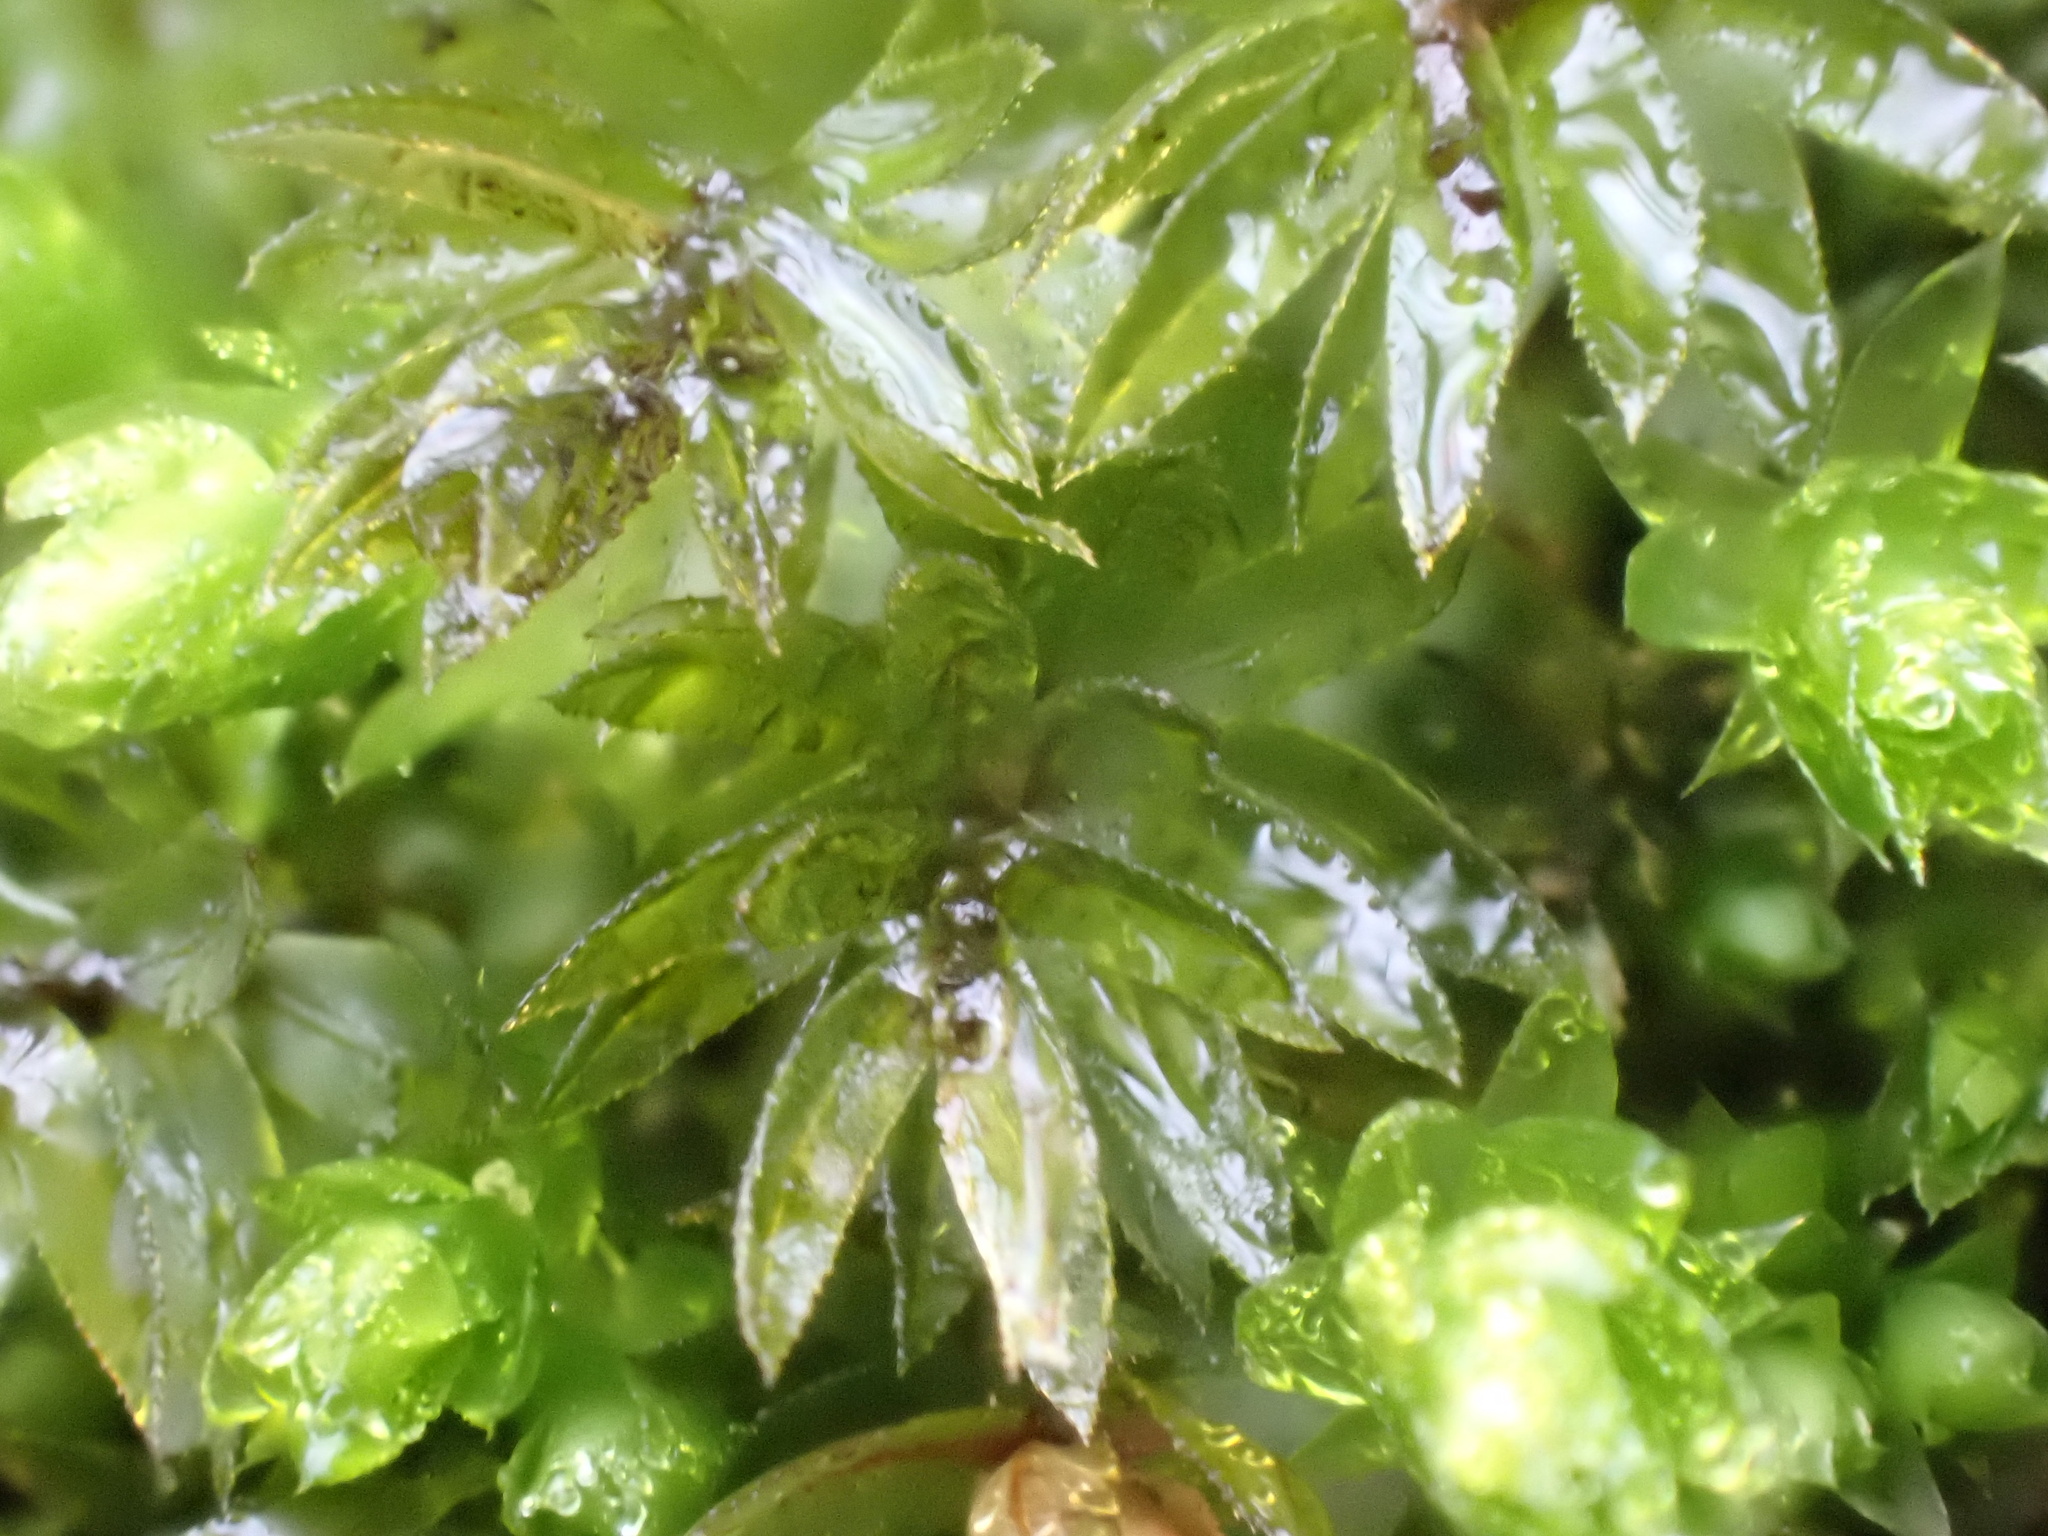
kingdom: Plantae
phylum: Bryophyta
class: Bryopsida
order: Bryales
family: Mniaceae
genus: Mnium
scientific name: Mnium hornum
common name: Swan's-neck leafy moss
